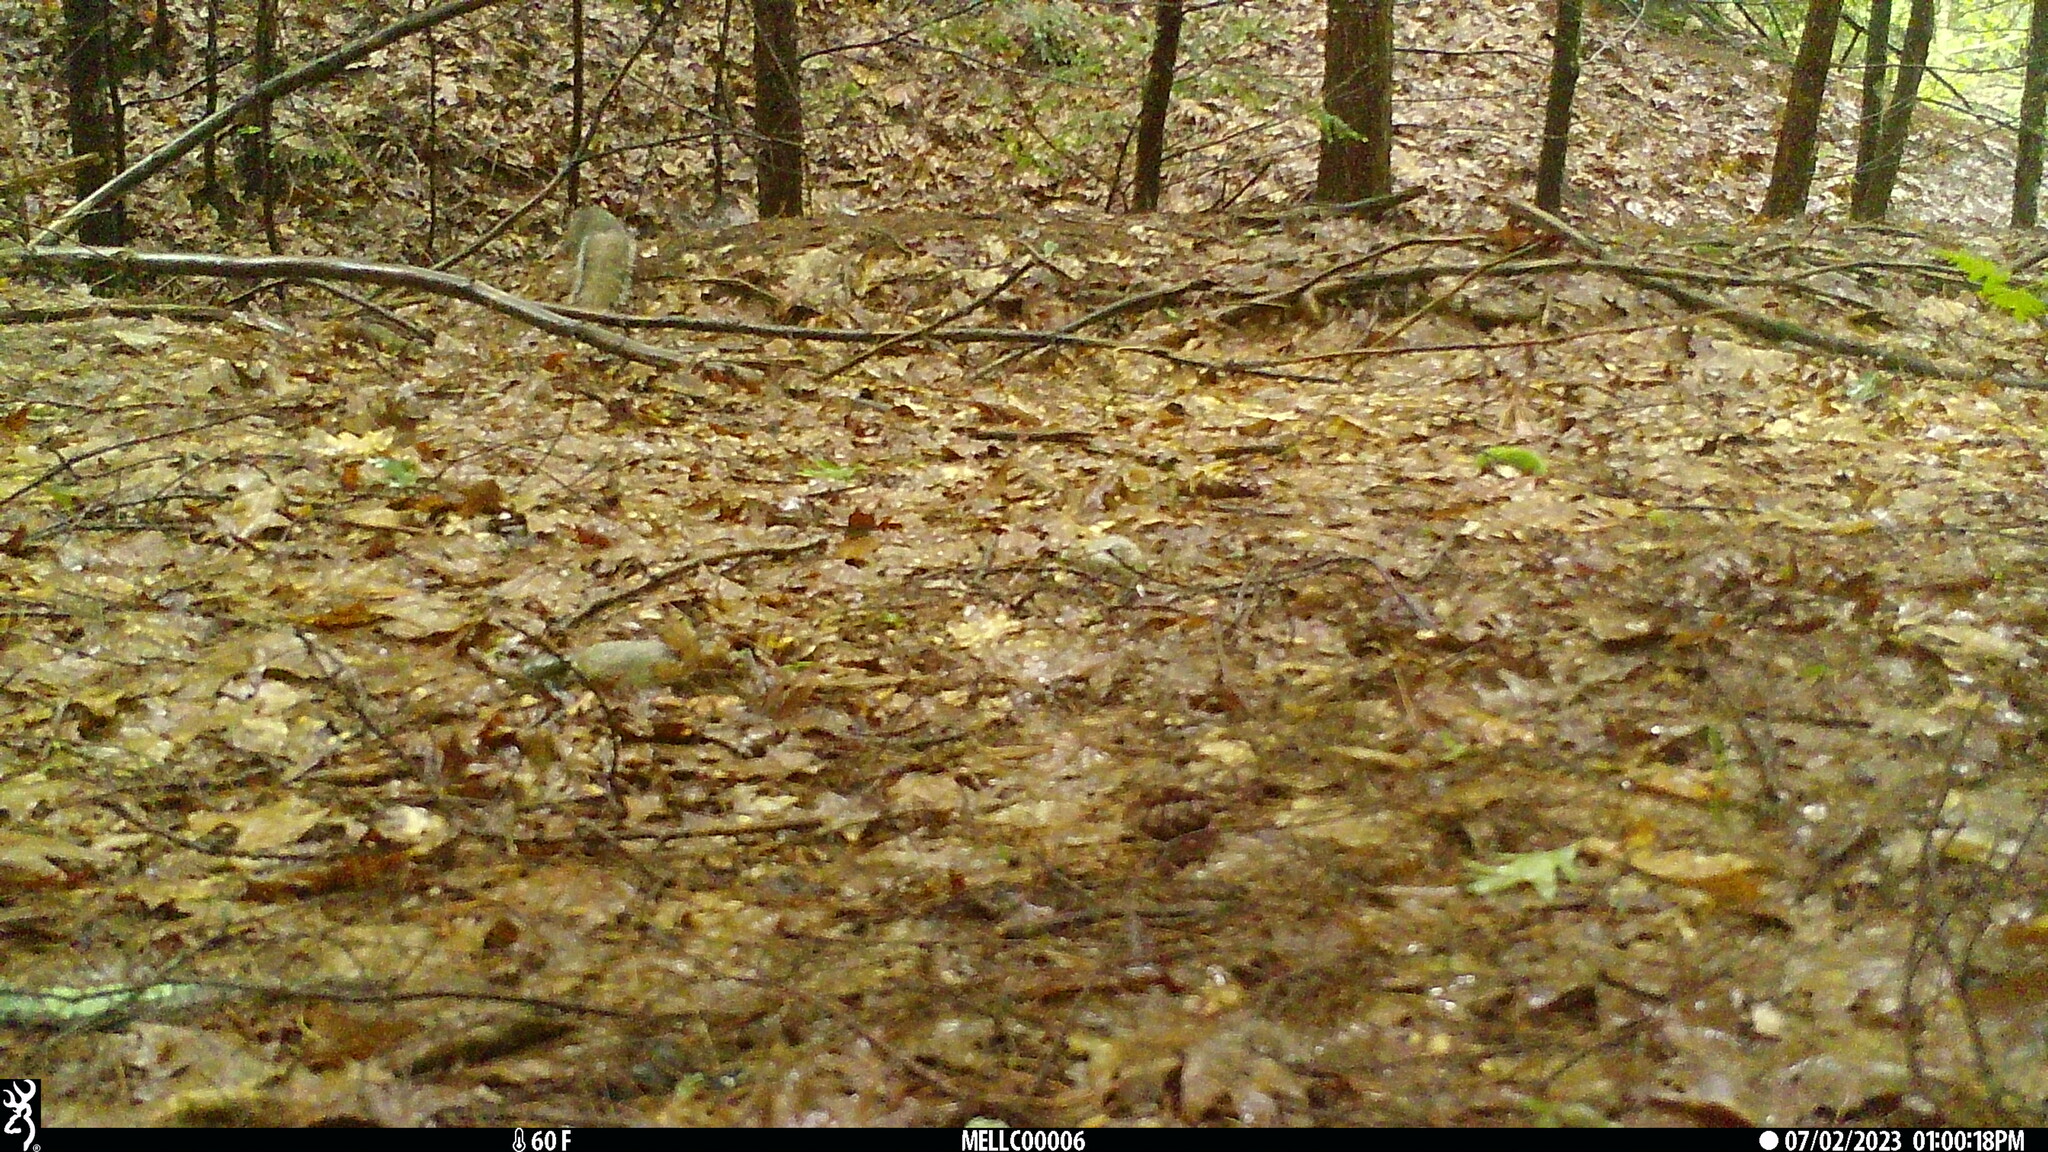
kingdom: Animalia
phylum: Chordata
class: Mammalia
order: Rodentia
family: Sciuridae
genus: Sciurus
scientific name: Sciurus carolinensis
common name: Eastern gray squirrel
